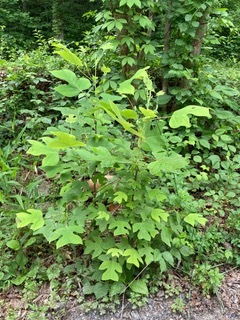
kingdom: Plantae
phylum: Tracheophyta
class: Magnoliopsida
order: Magnoliales
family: Magnoliaceae
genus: Liriodendron
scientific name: Liriodendron tulipifera
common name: Tulip tree
